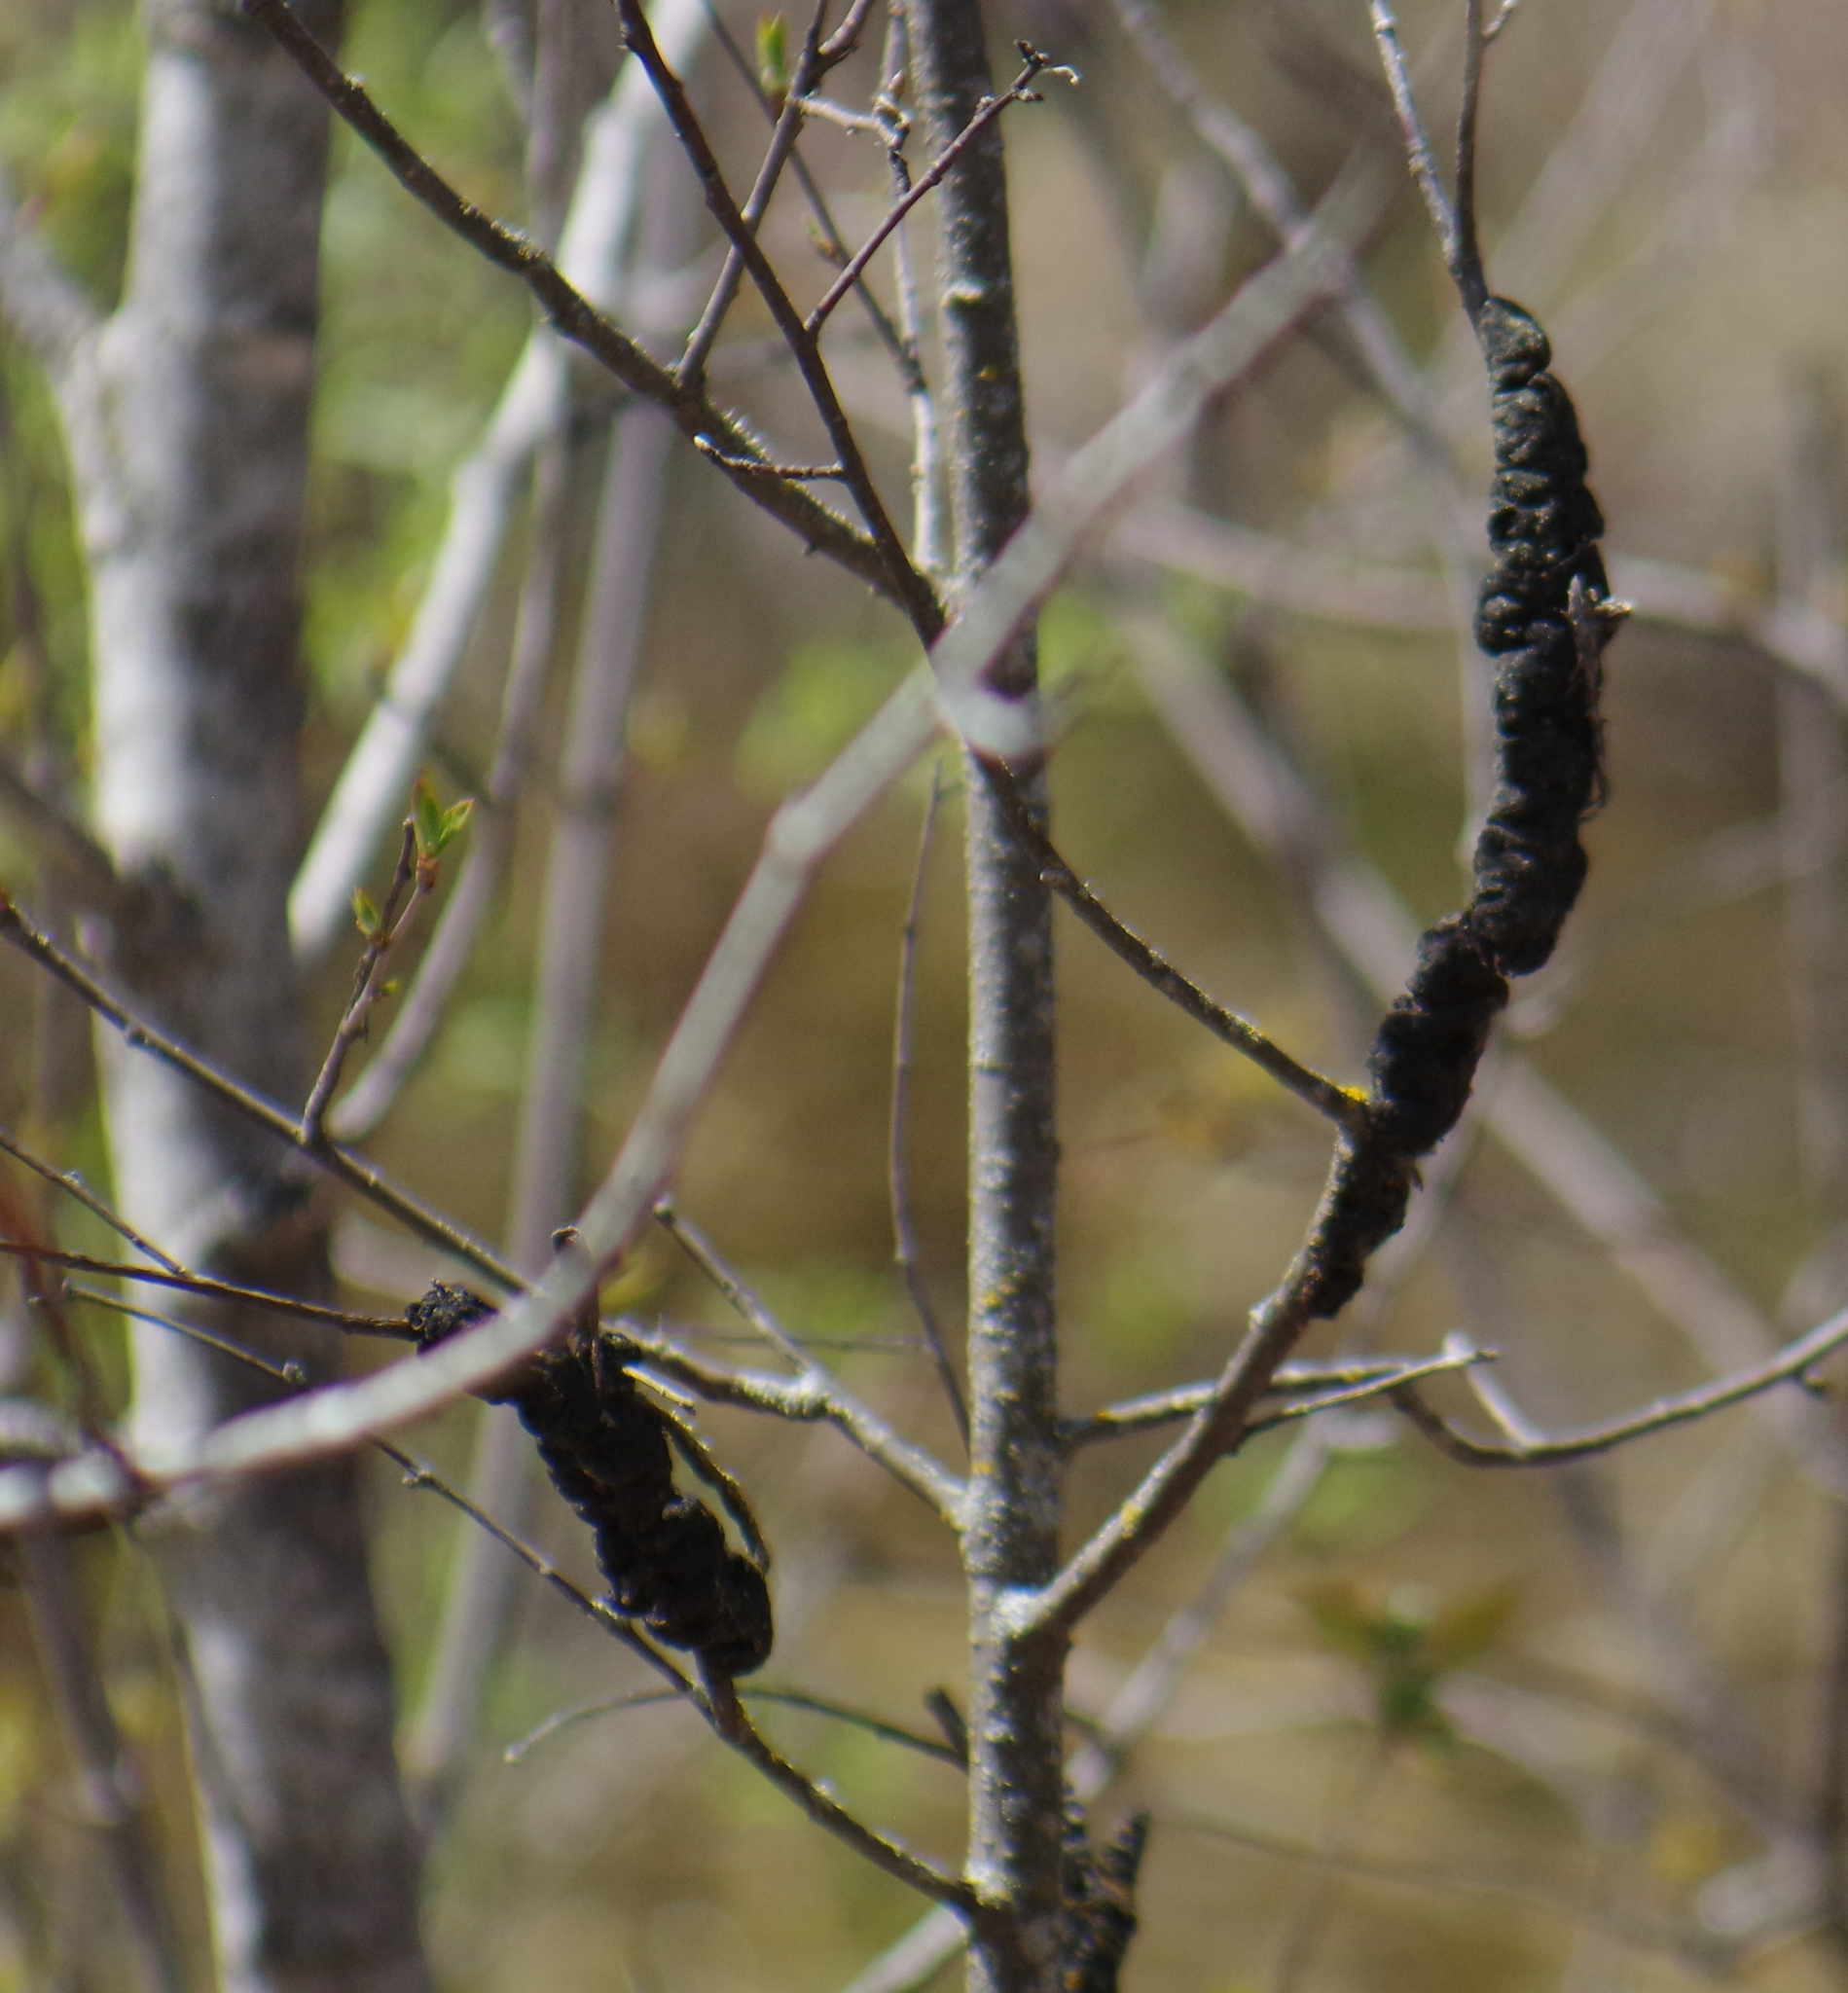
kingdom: Fungi
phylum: Ascomycota
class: Dothideomycetes
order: Venturiales
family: Venturiaceae
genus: Apiosporina
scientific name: Apiosporina morbosa
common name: Black knot
